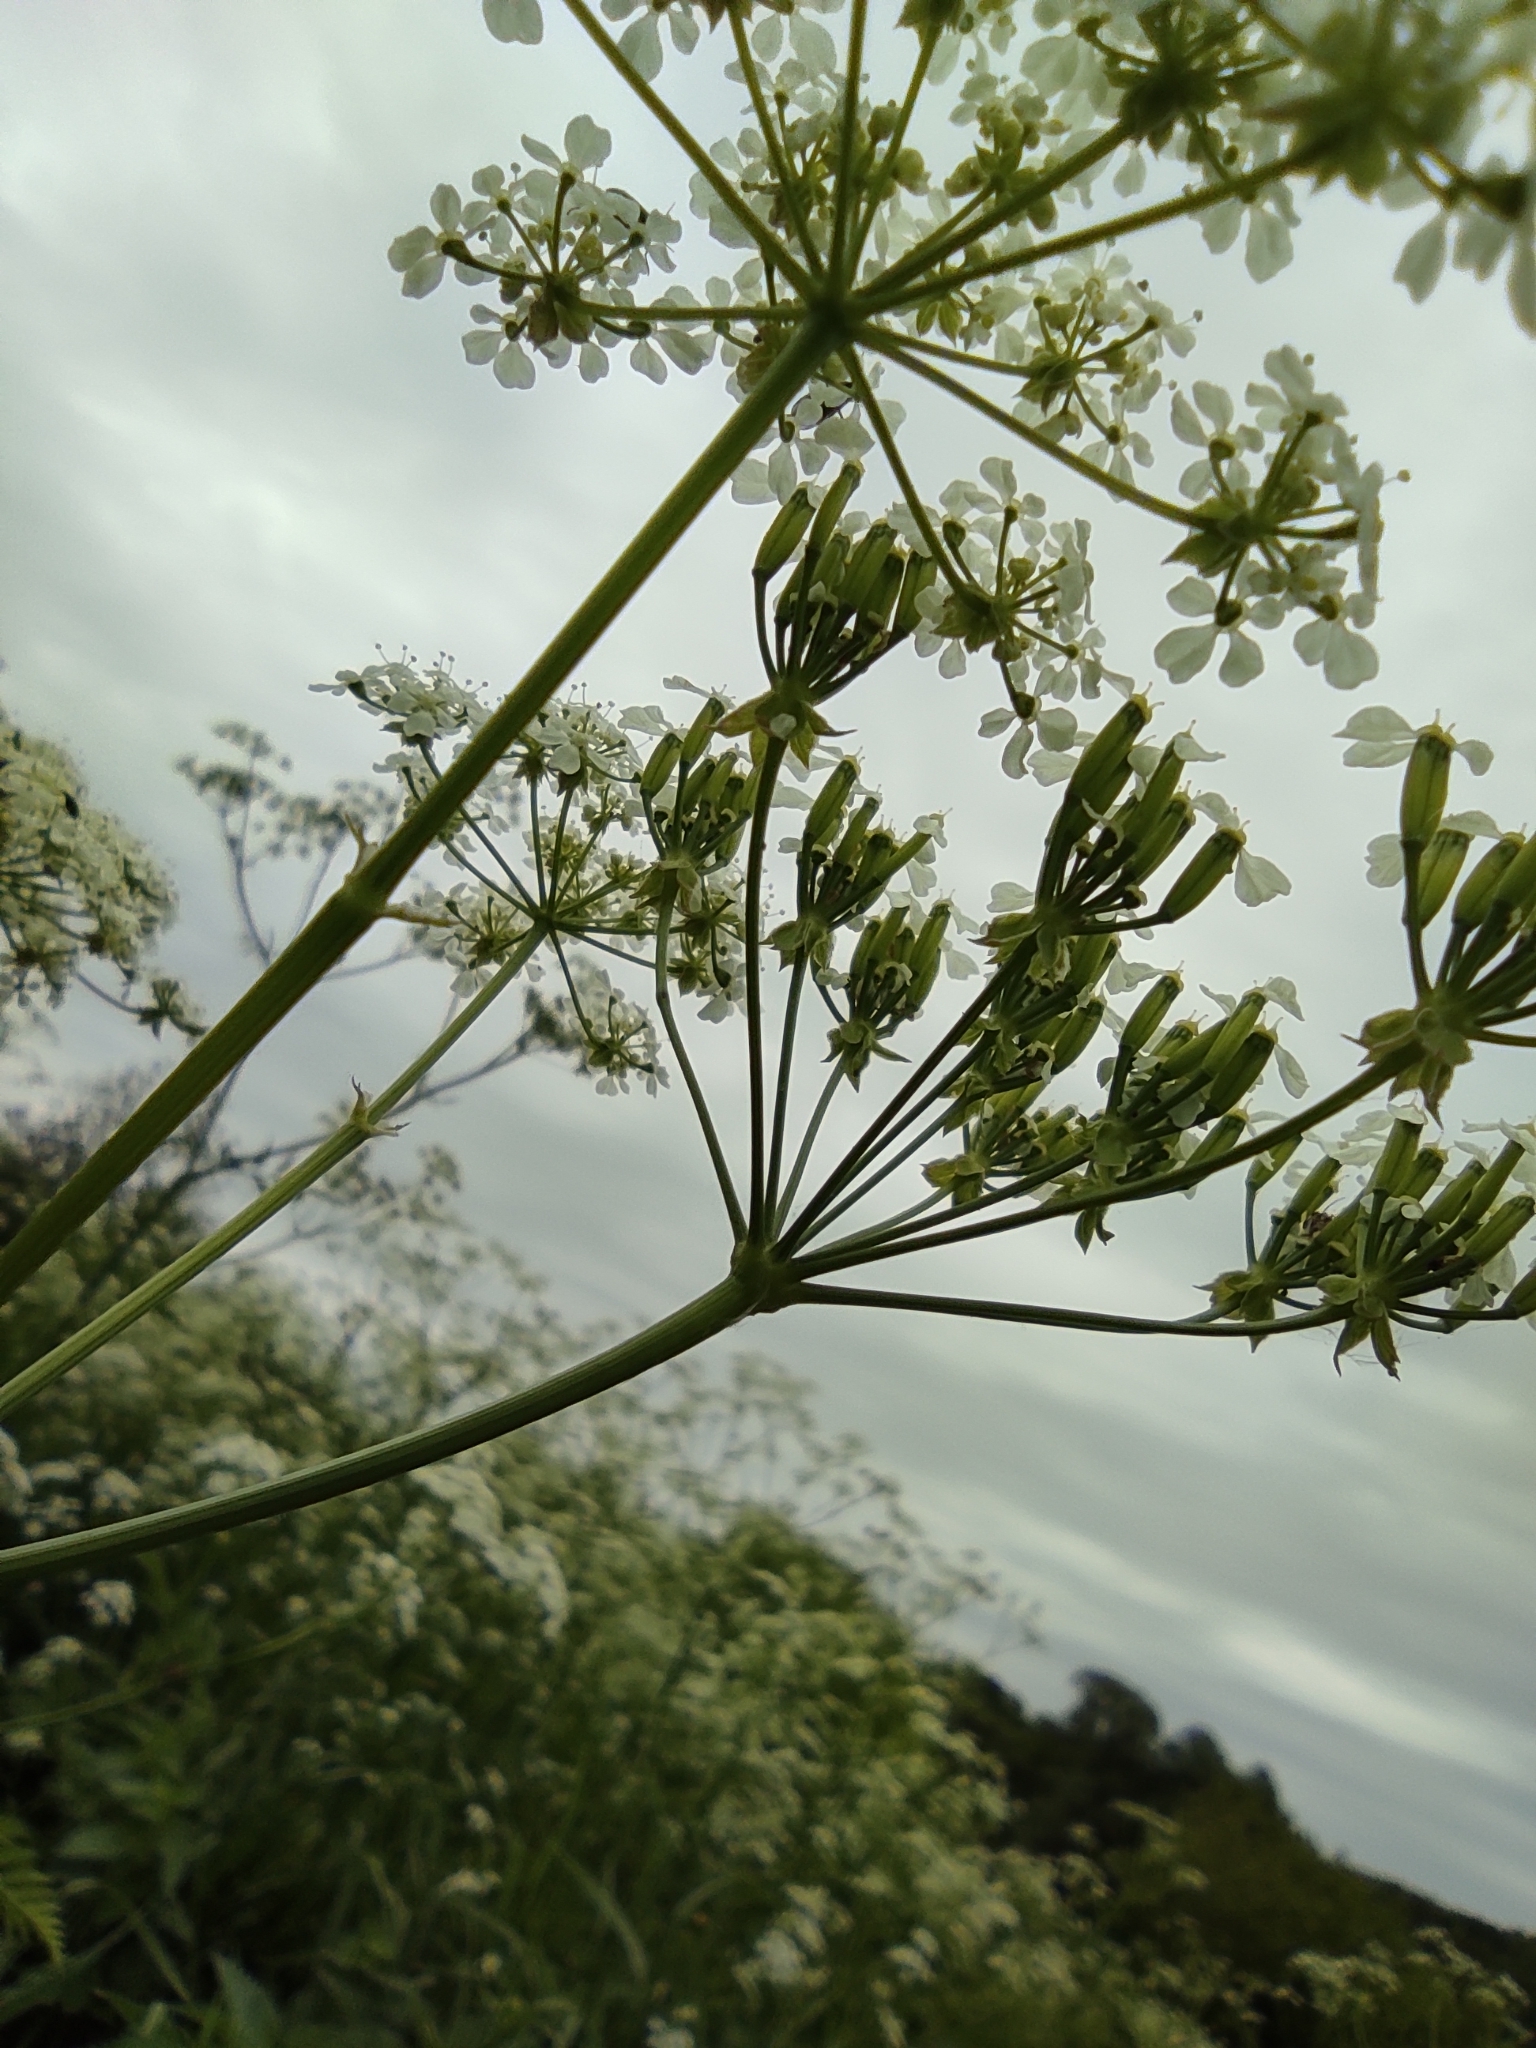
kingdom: Plantae
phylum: Tracheophyta
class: Magnoliopsida
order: Apiales
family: Apiaceae
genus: Anthriscus
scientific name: Anthriscus sylvestris
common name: Cow parsley
